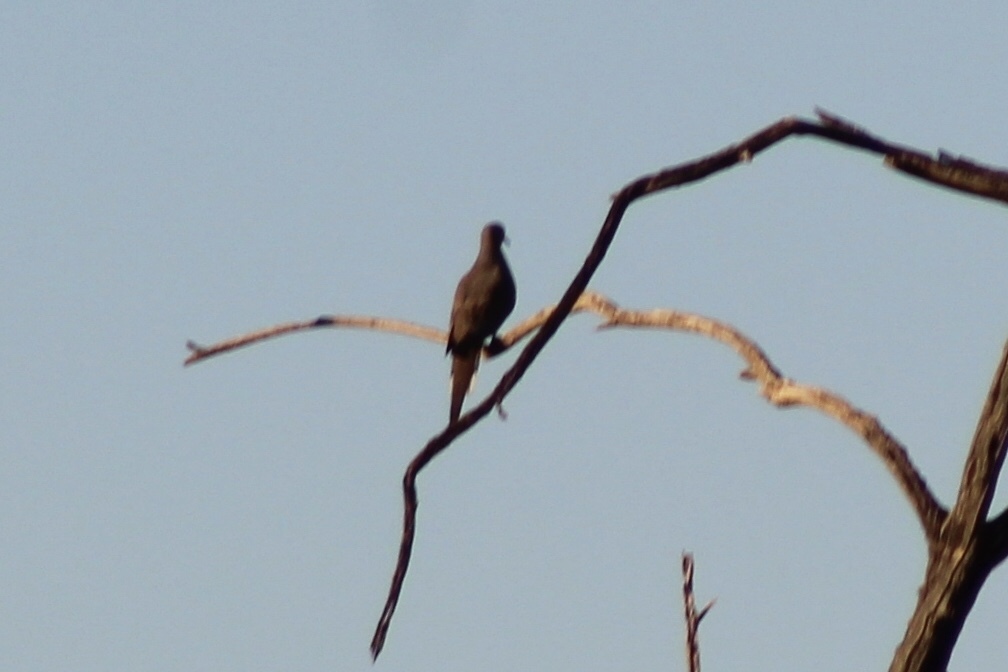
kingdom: Animalia
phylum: Chordata
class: Aves
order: Columbiformes
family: Columbidae
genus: Zenaida
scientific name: Zenaida macroura
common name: Mourning dove
